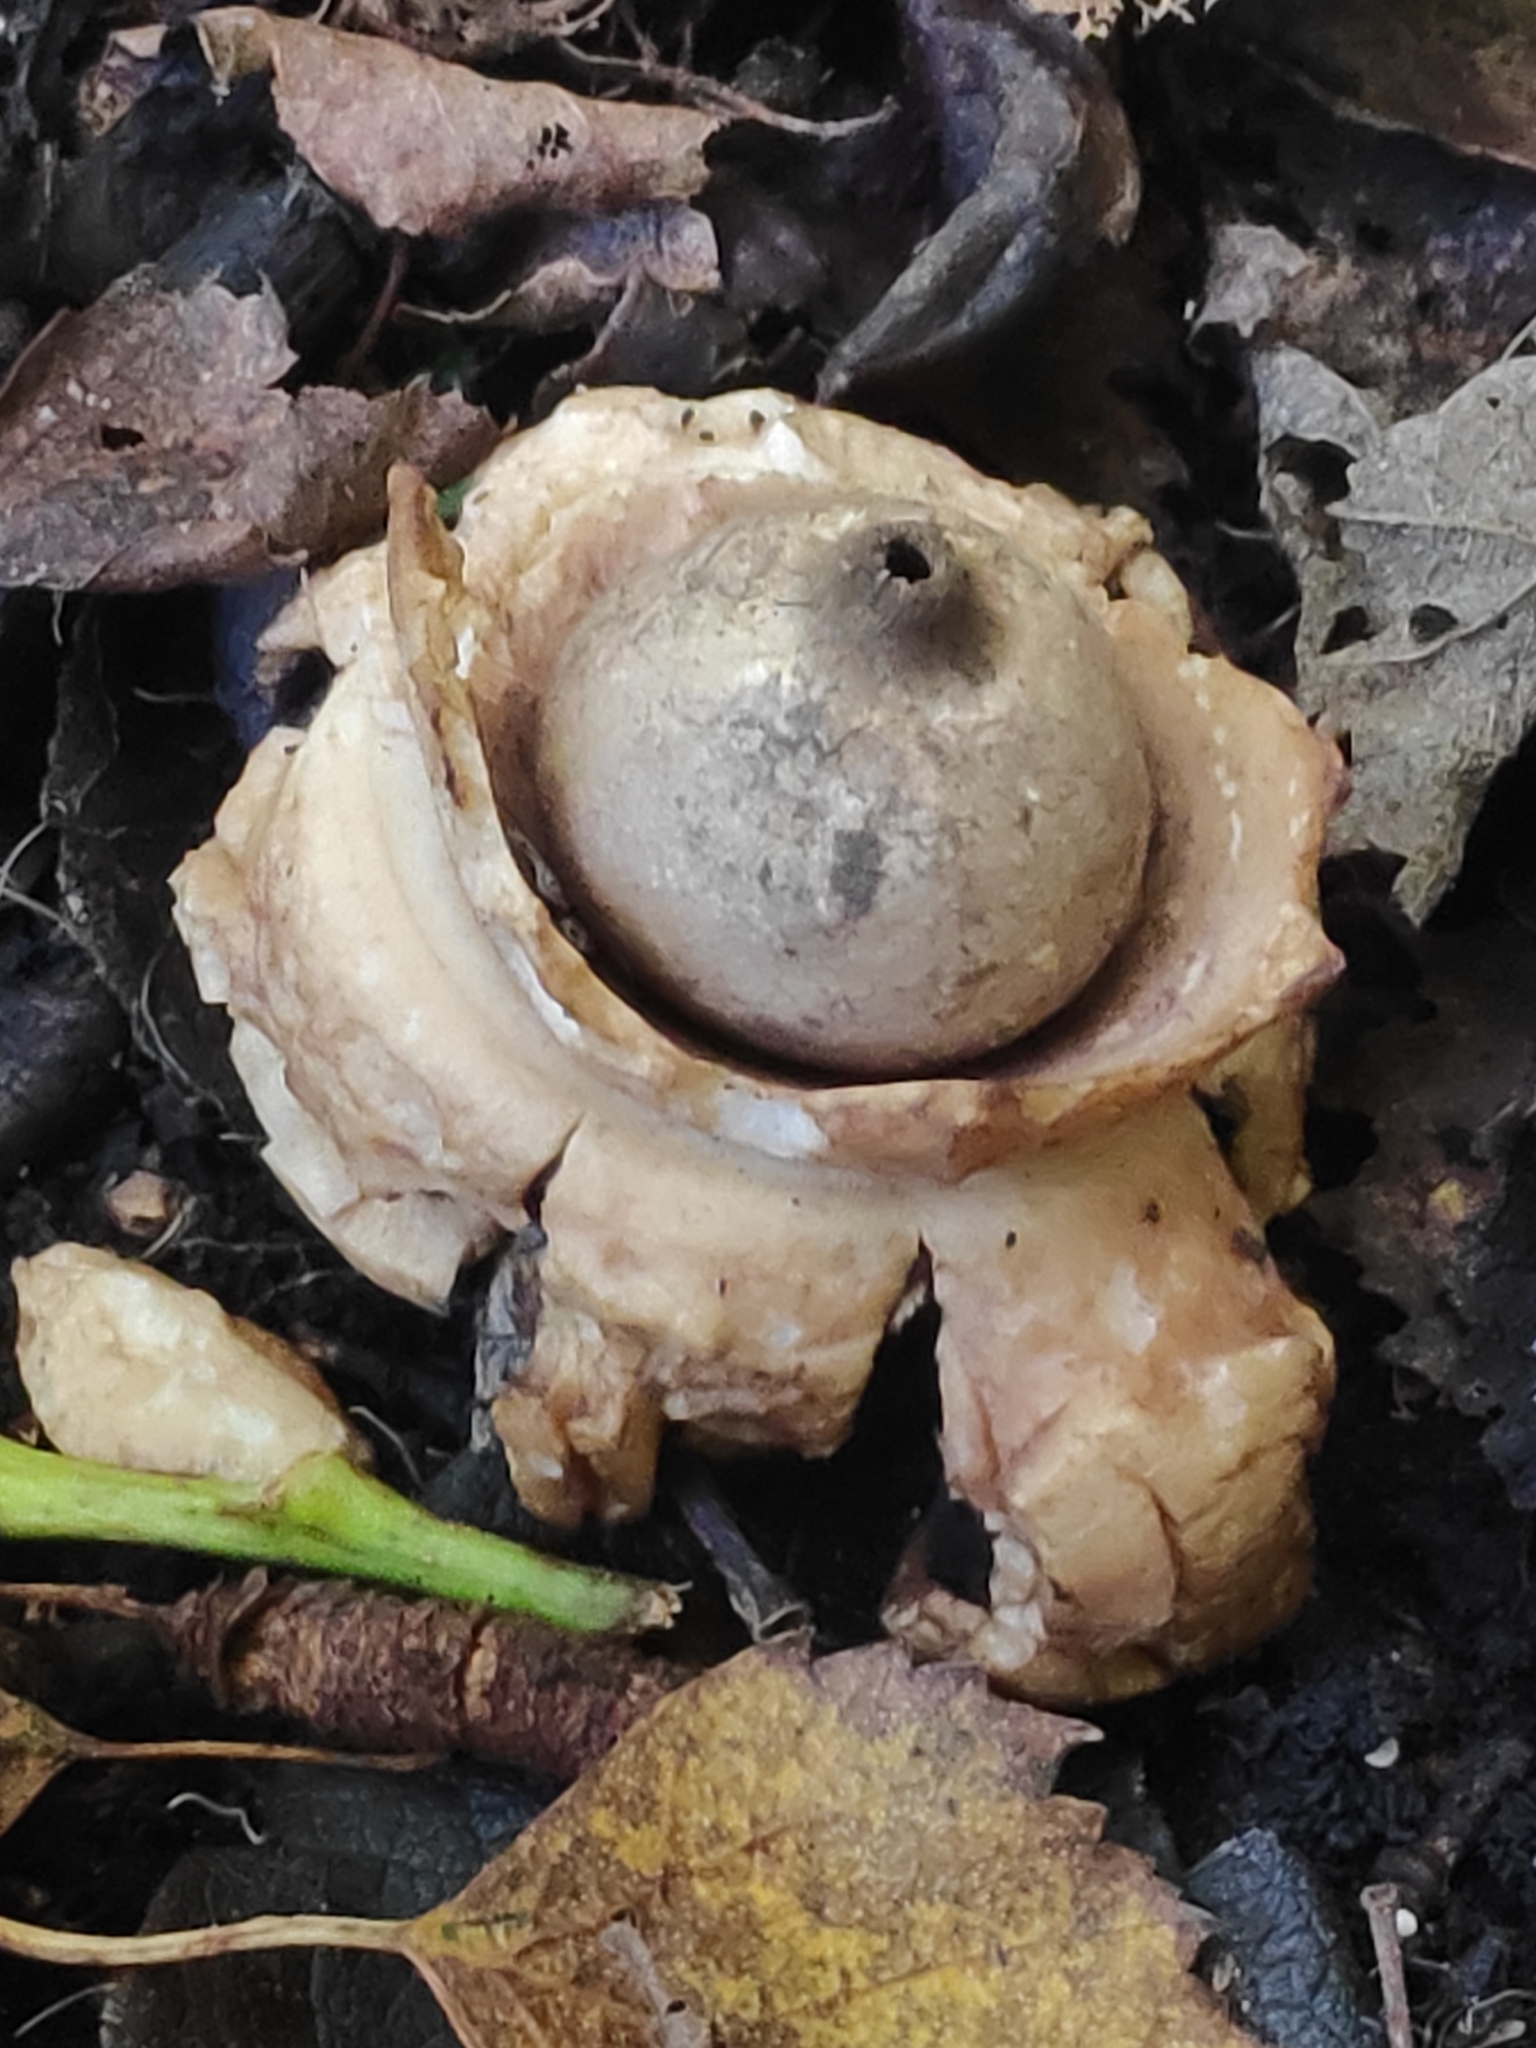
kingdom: Fungi
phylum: Basidiomycota
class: Agaricomycetes
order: Geastrales
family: Geastraceae
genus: Geastrum
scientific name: Geastrum triplex
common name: Collared earthstar
